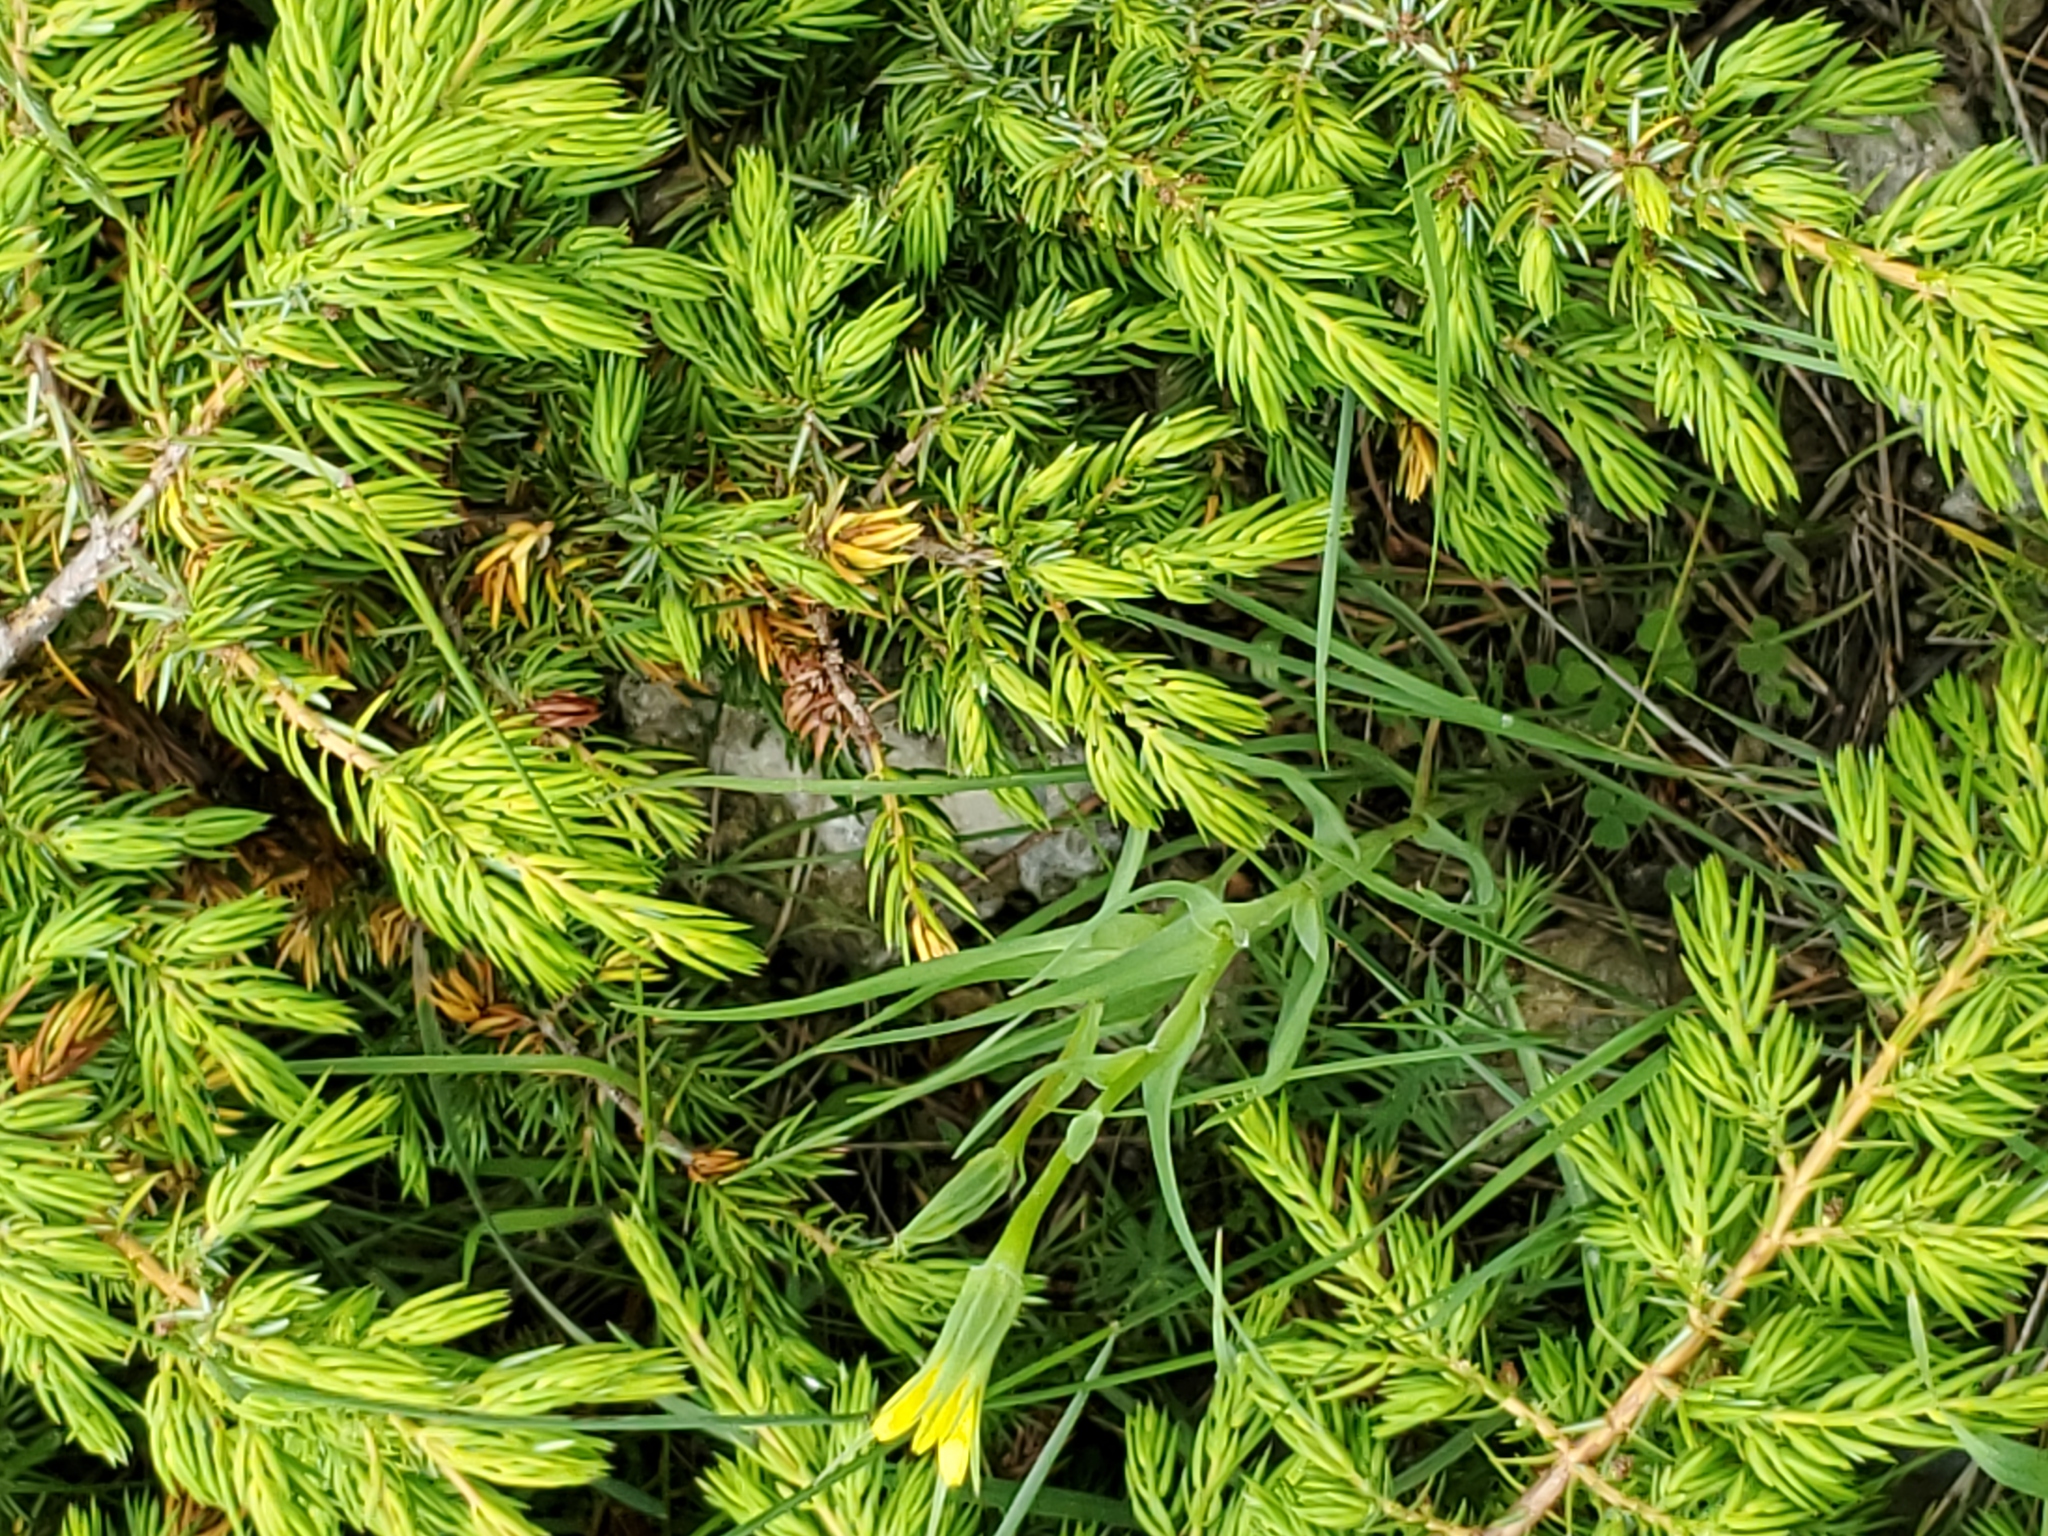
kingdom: Plantae
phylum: Tracheophyta
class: Pinopsida
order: Pinales
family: Cupressaceae
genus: Juniperus
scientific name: Juniperus communis
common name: Common juniper
